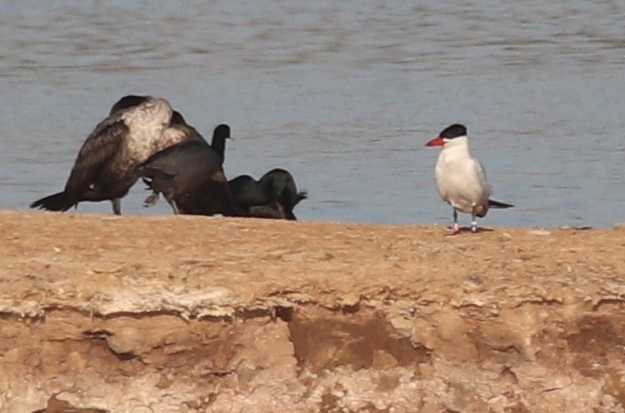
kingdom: Animalia
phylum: Chordata
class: Aves
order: Charadriiformes
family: Laridae
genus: Hydroprogne
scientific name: Hydroprogne caspia
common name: Caspian tern
